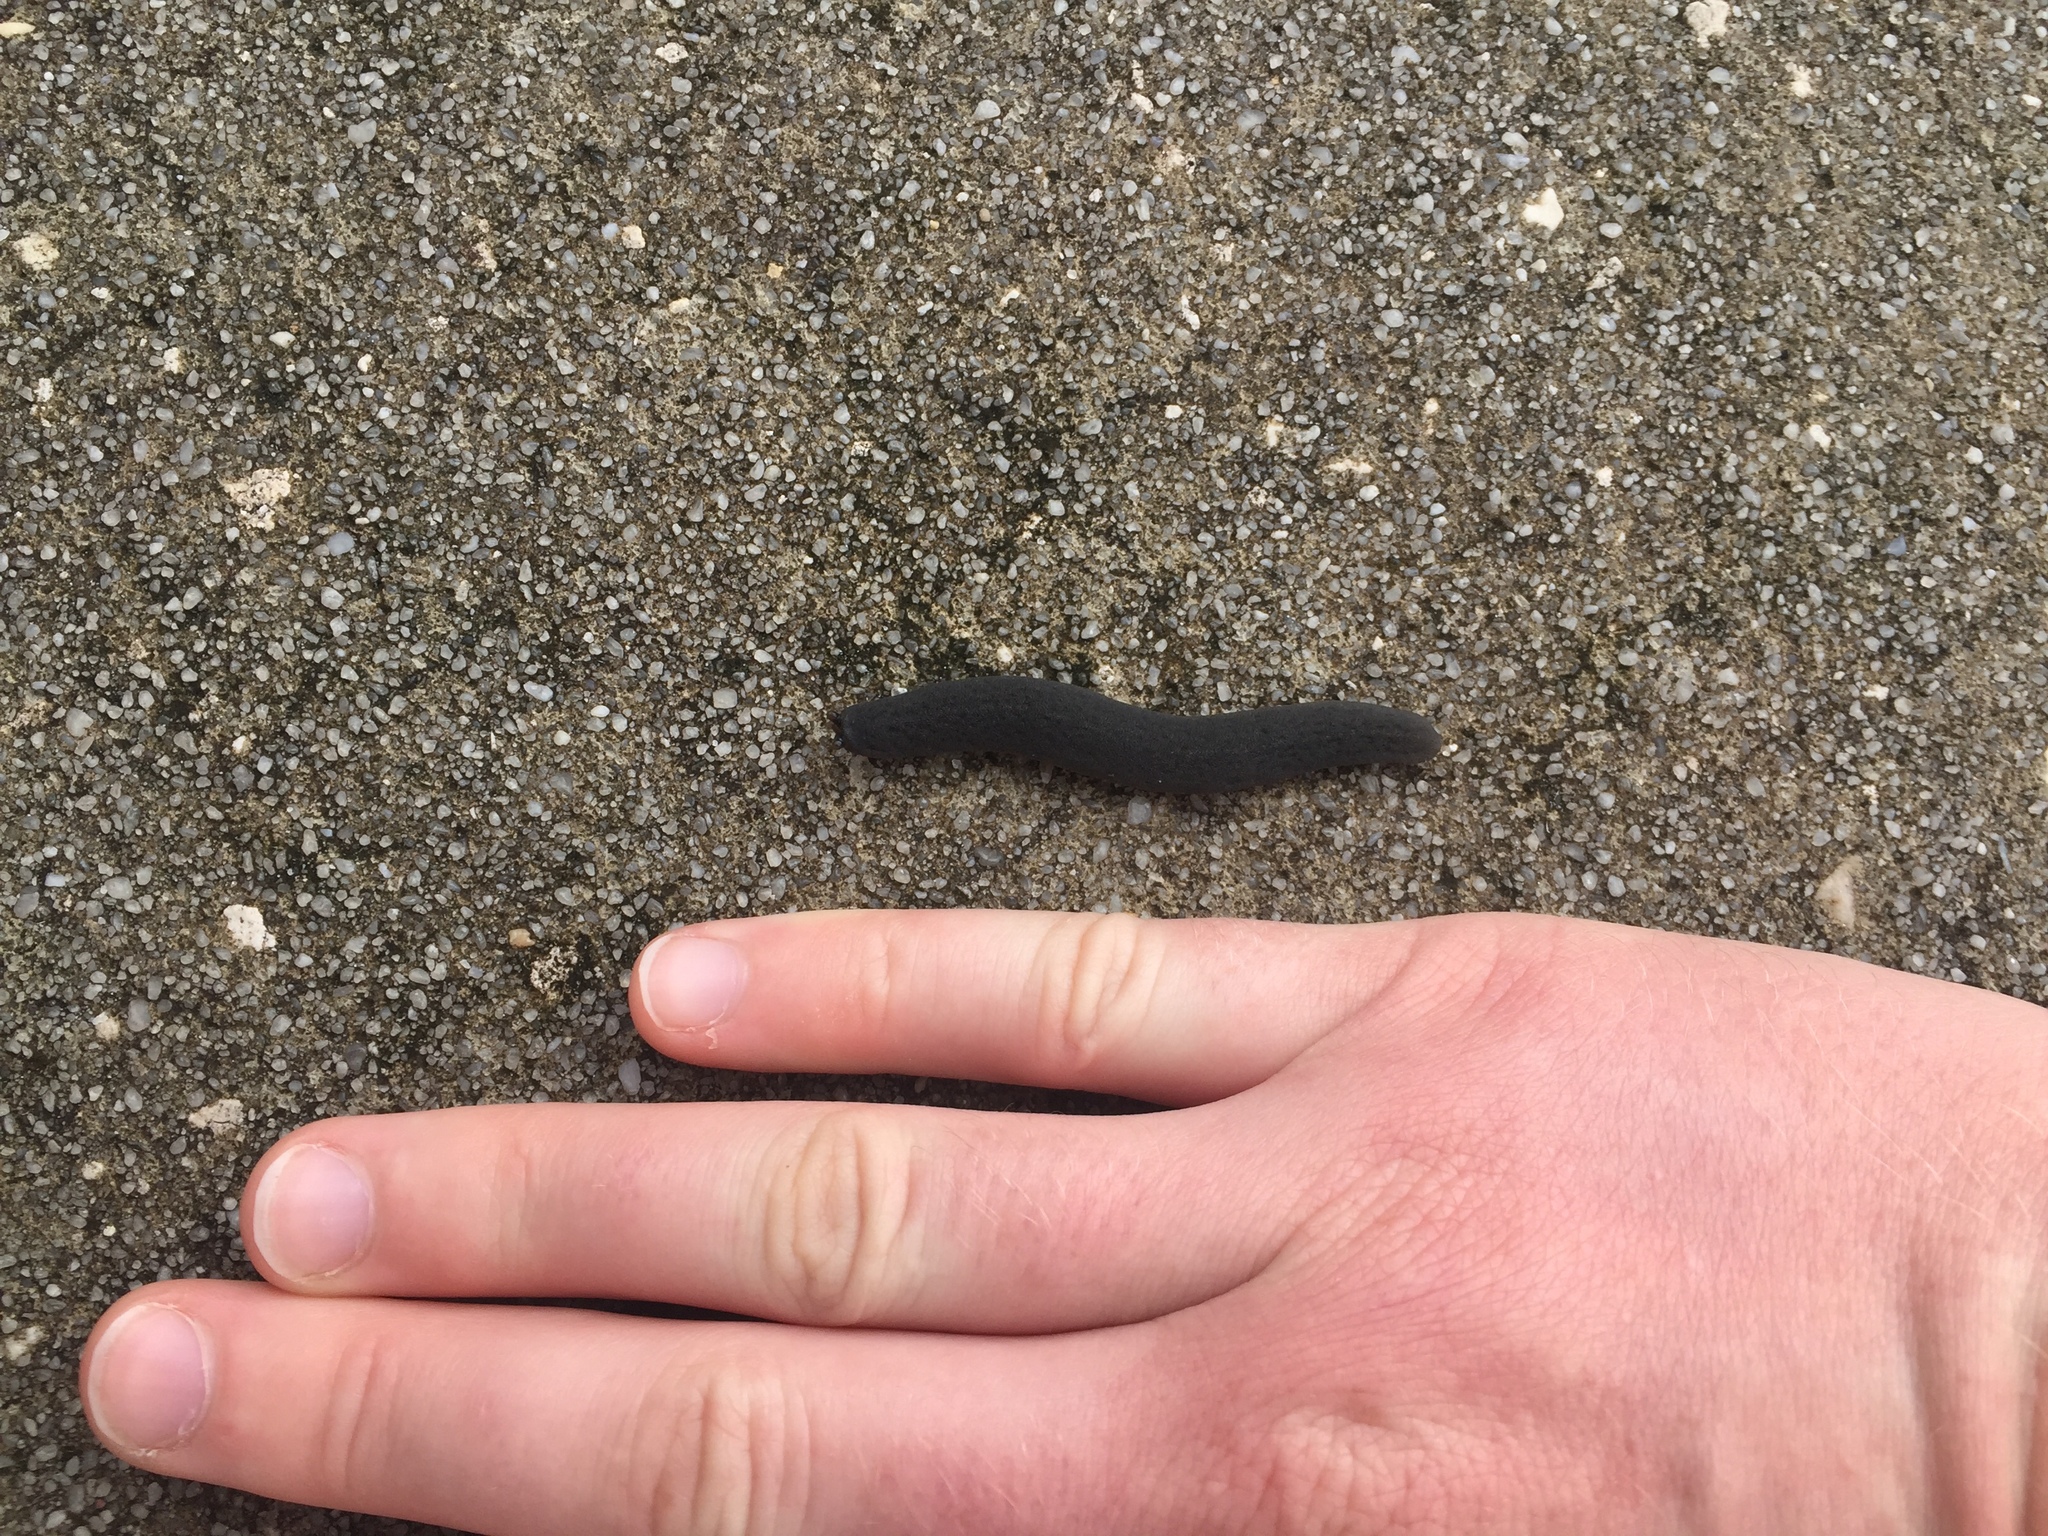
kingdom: Animalia
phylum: Mollusca
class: Gastropoda
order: Systellommatophora
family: Veronicellidae
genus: Belocaulus
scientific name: Belocaulus angustipes
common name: Black velvet leatherleaf slug
